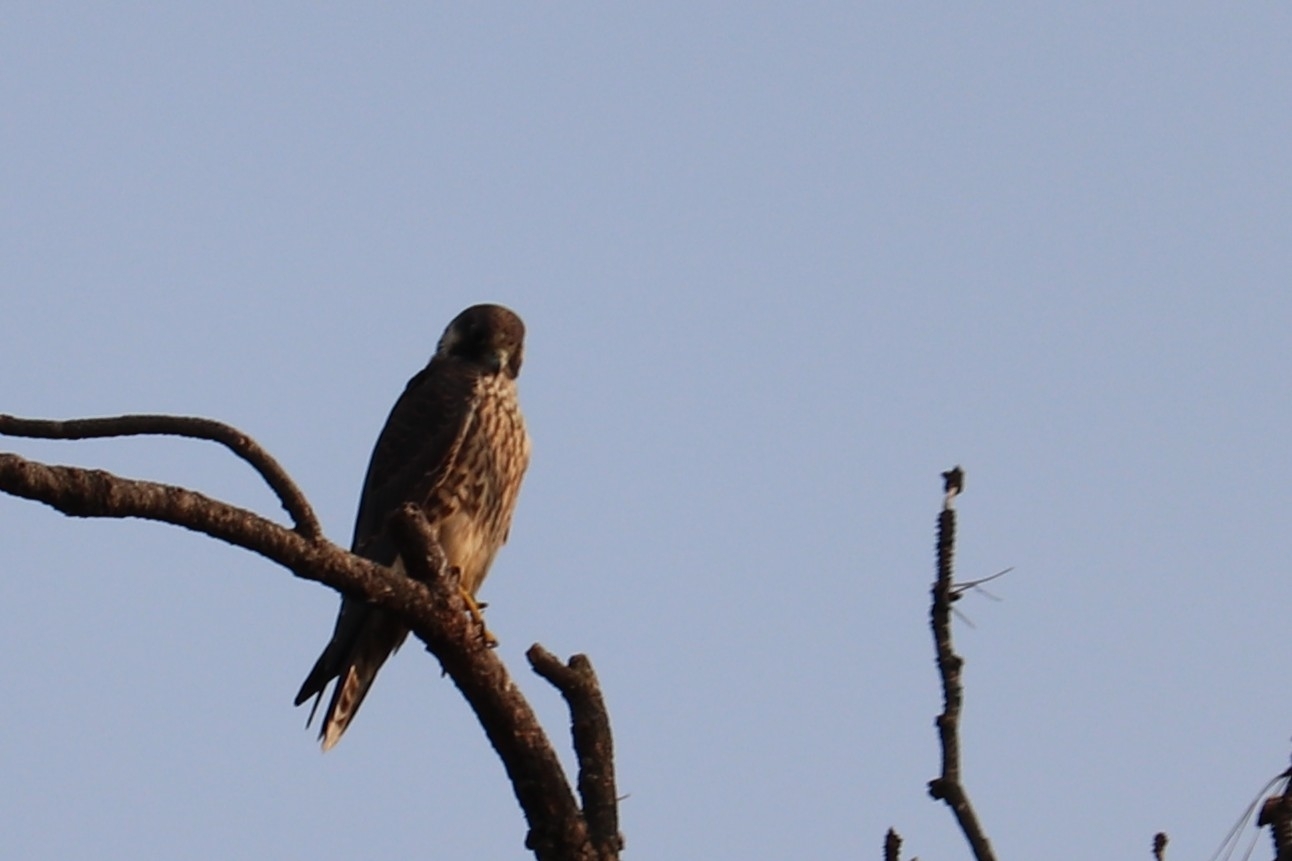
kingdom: Animalia
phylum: Chordata
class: Aves
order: Falconiformes
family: Falconidae
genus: Falco
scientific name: Falco peregrinus
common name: Peregrine falcon
